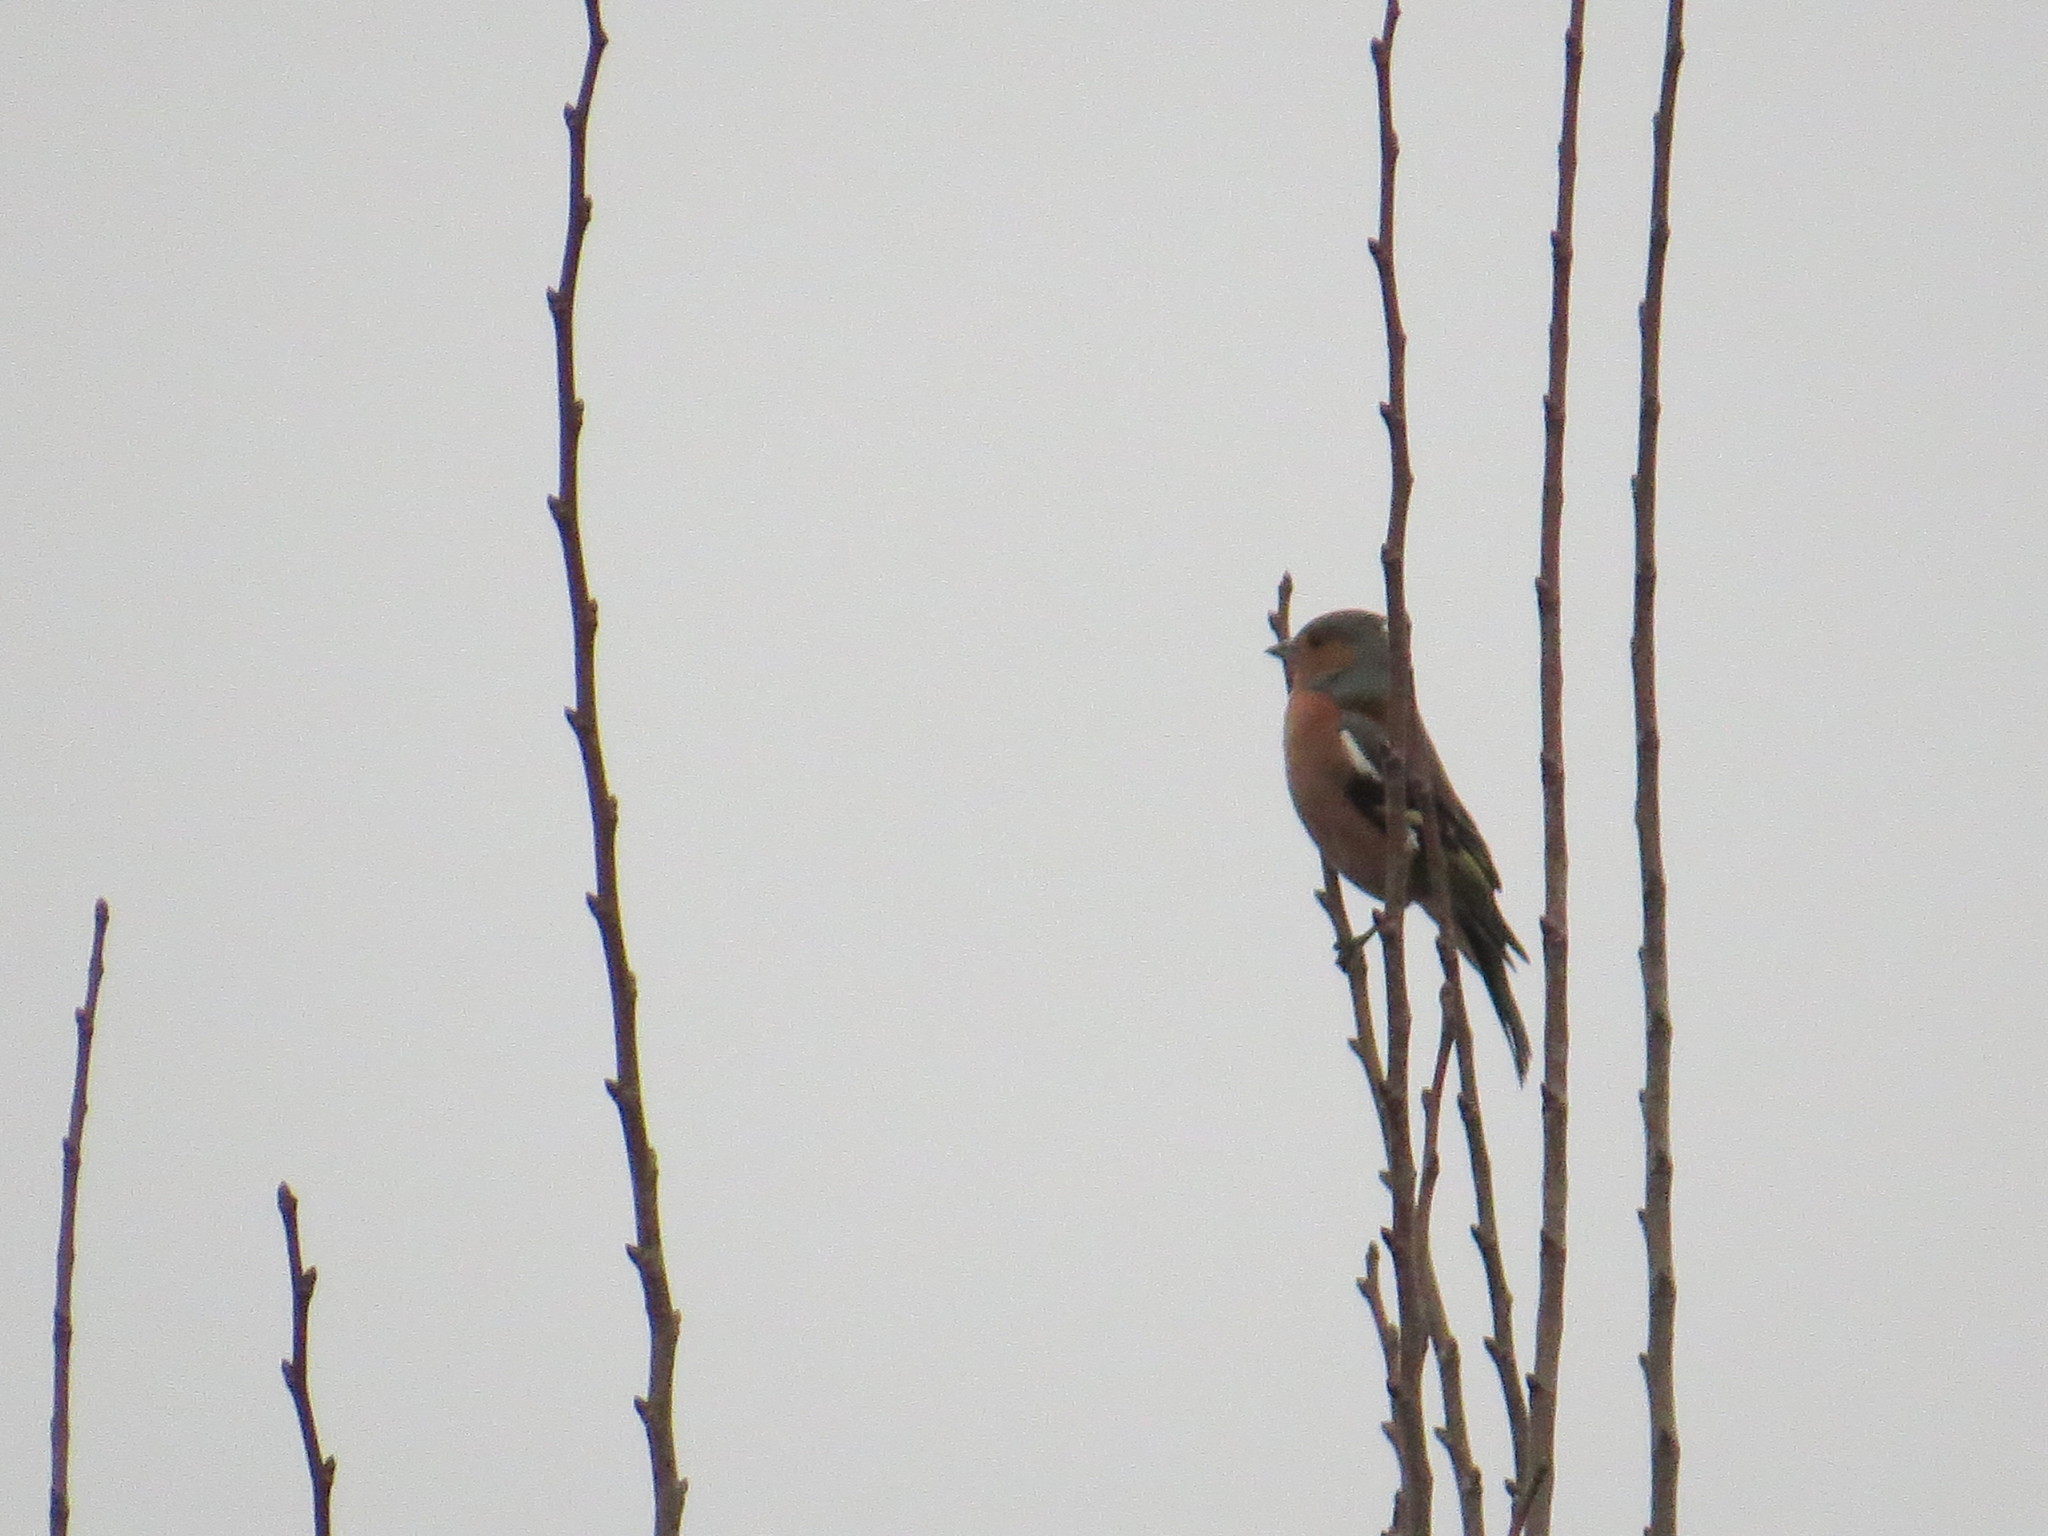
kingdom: Animalia
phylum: Chordata
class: Aves
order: Passeriformes
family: Fringillidae
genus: Fringilla
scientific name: Fringilla coelebs
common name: Common chaffinch
